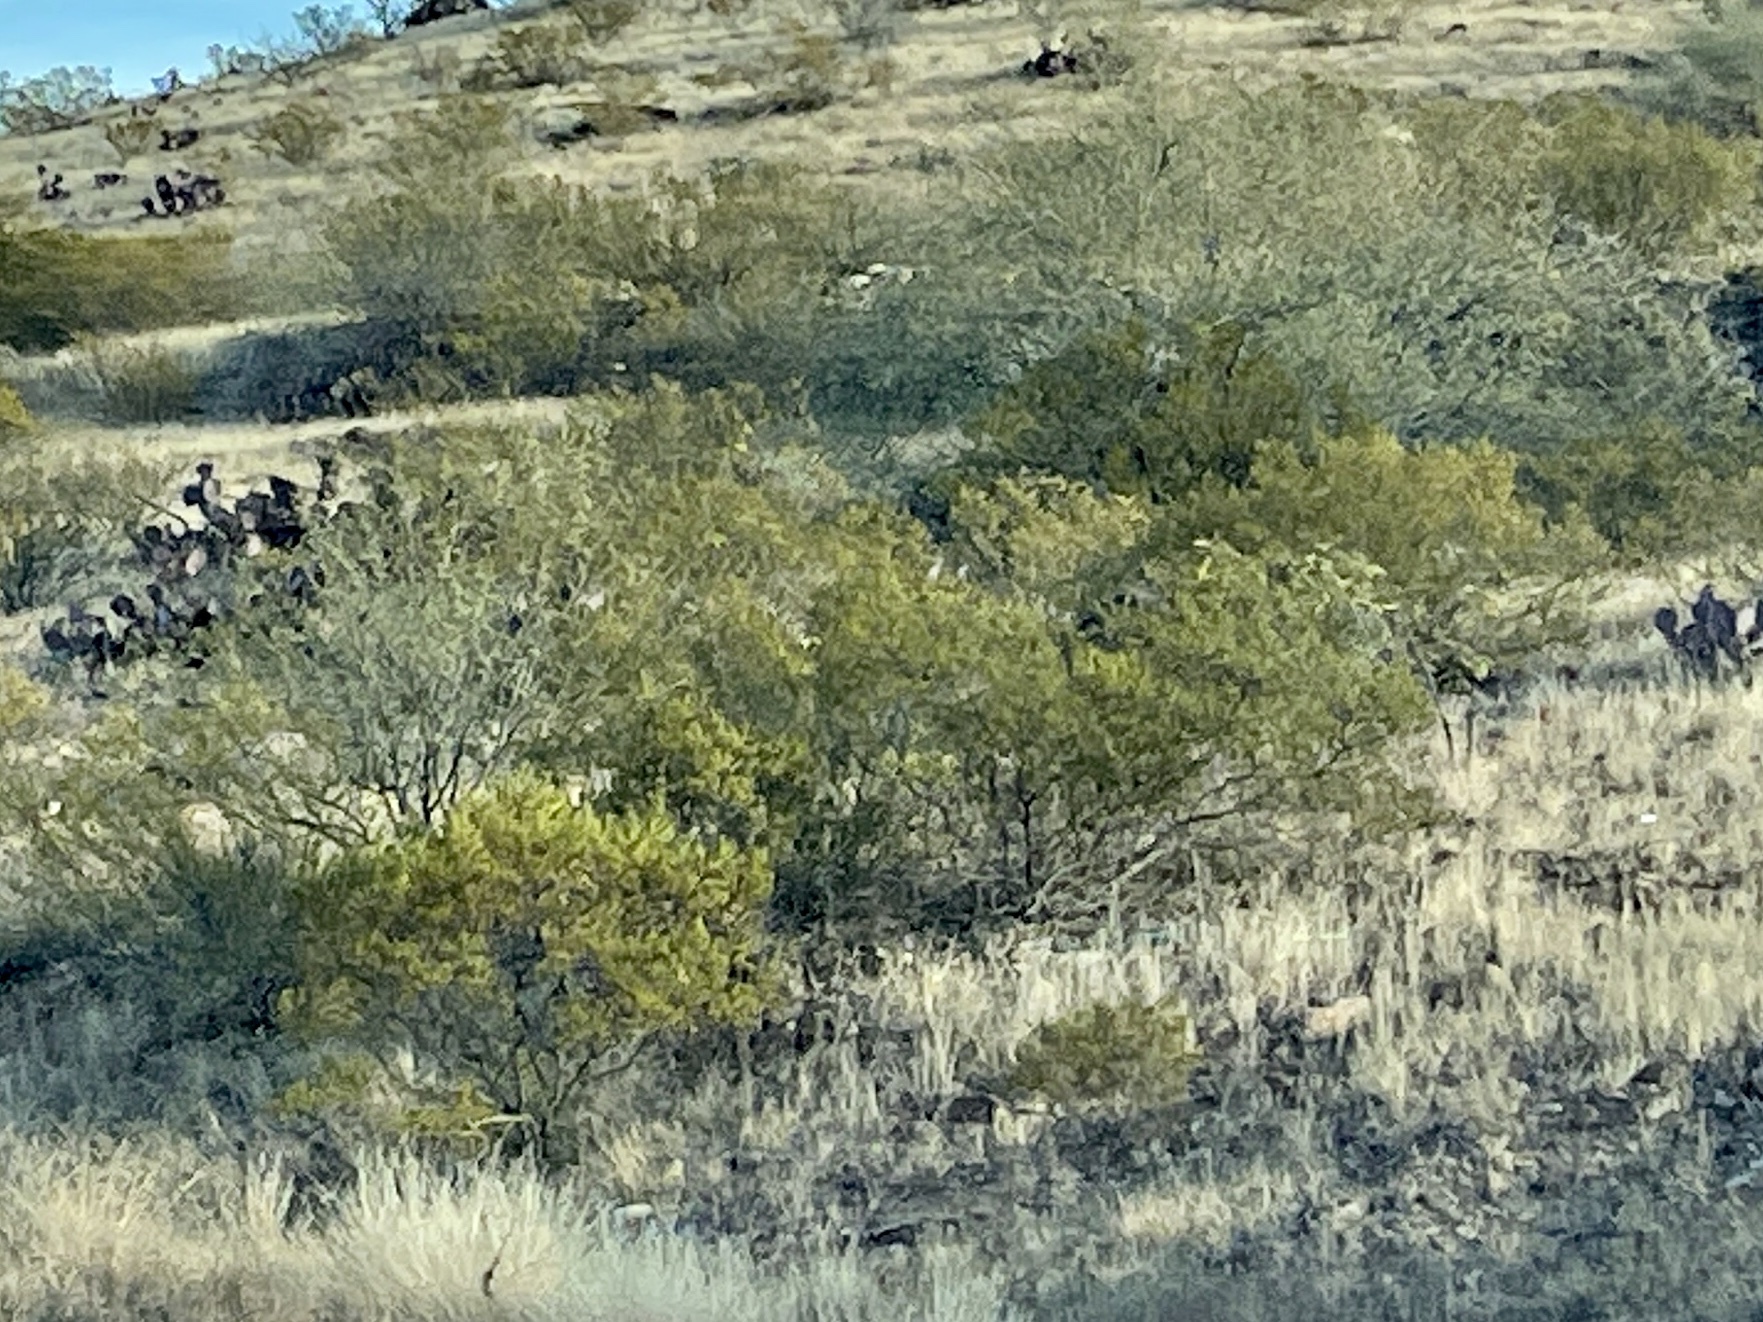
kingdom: Plantae
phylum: Tracheophyta
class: Magnoliopsida
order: Zygophyllales
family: Zygophyllaceae
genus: Larrea
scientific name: Larrea tridentata
